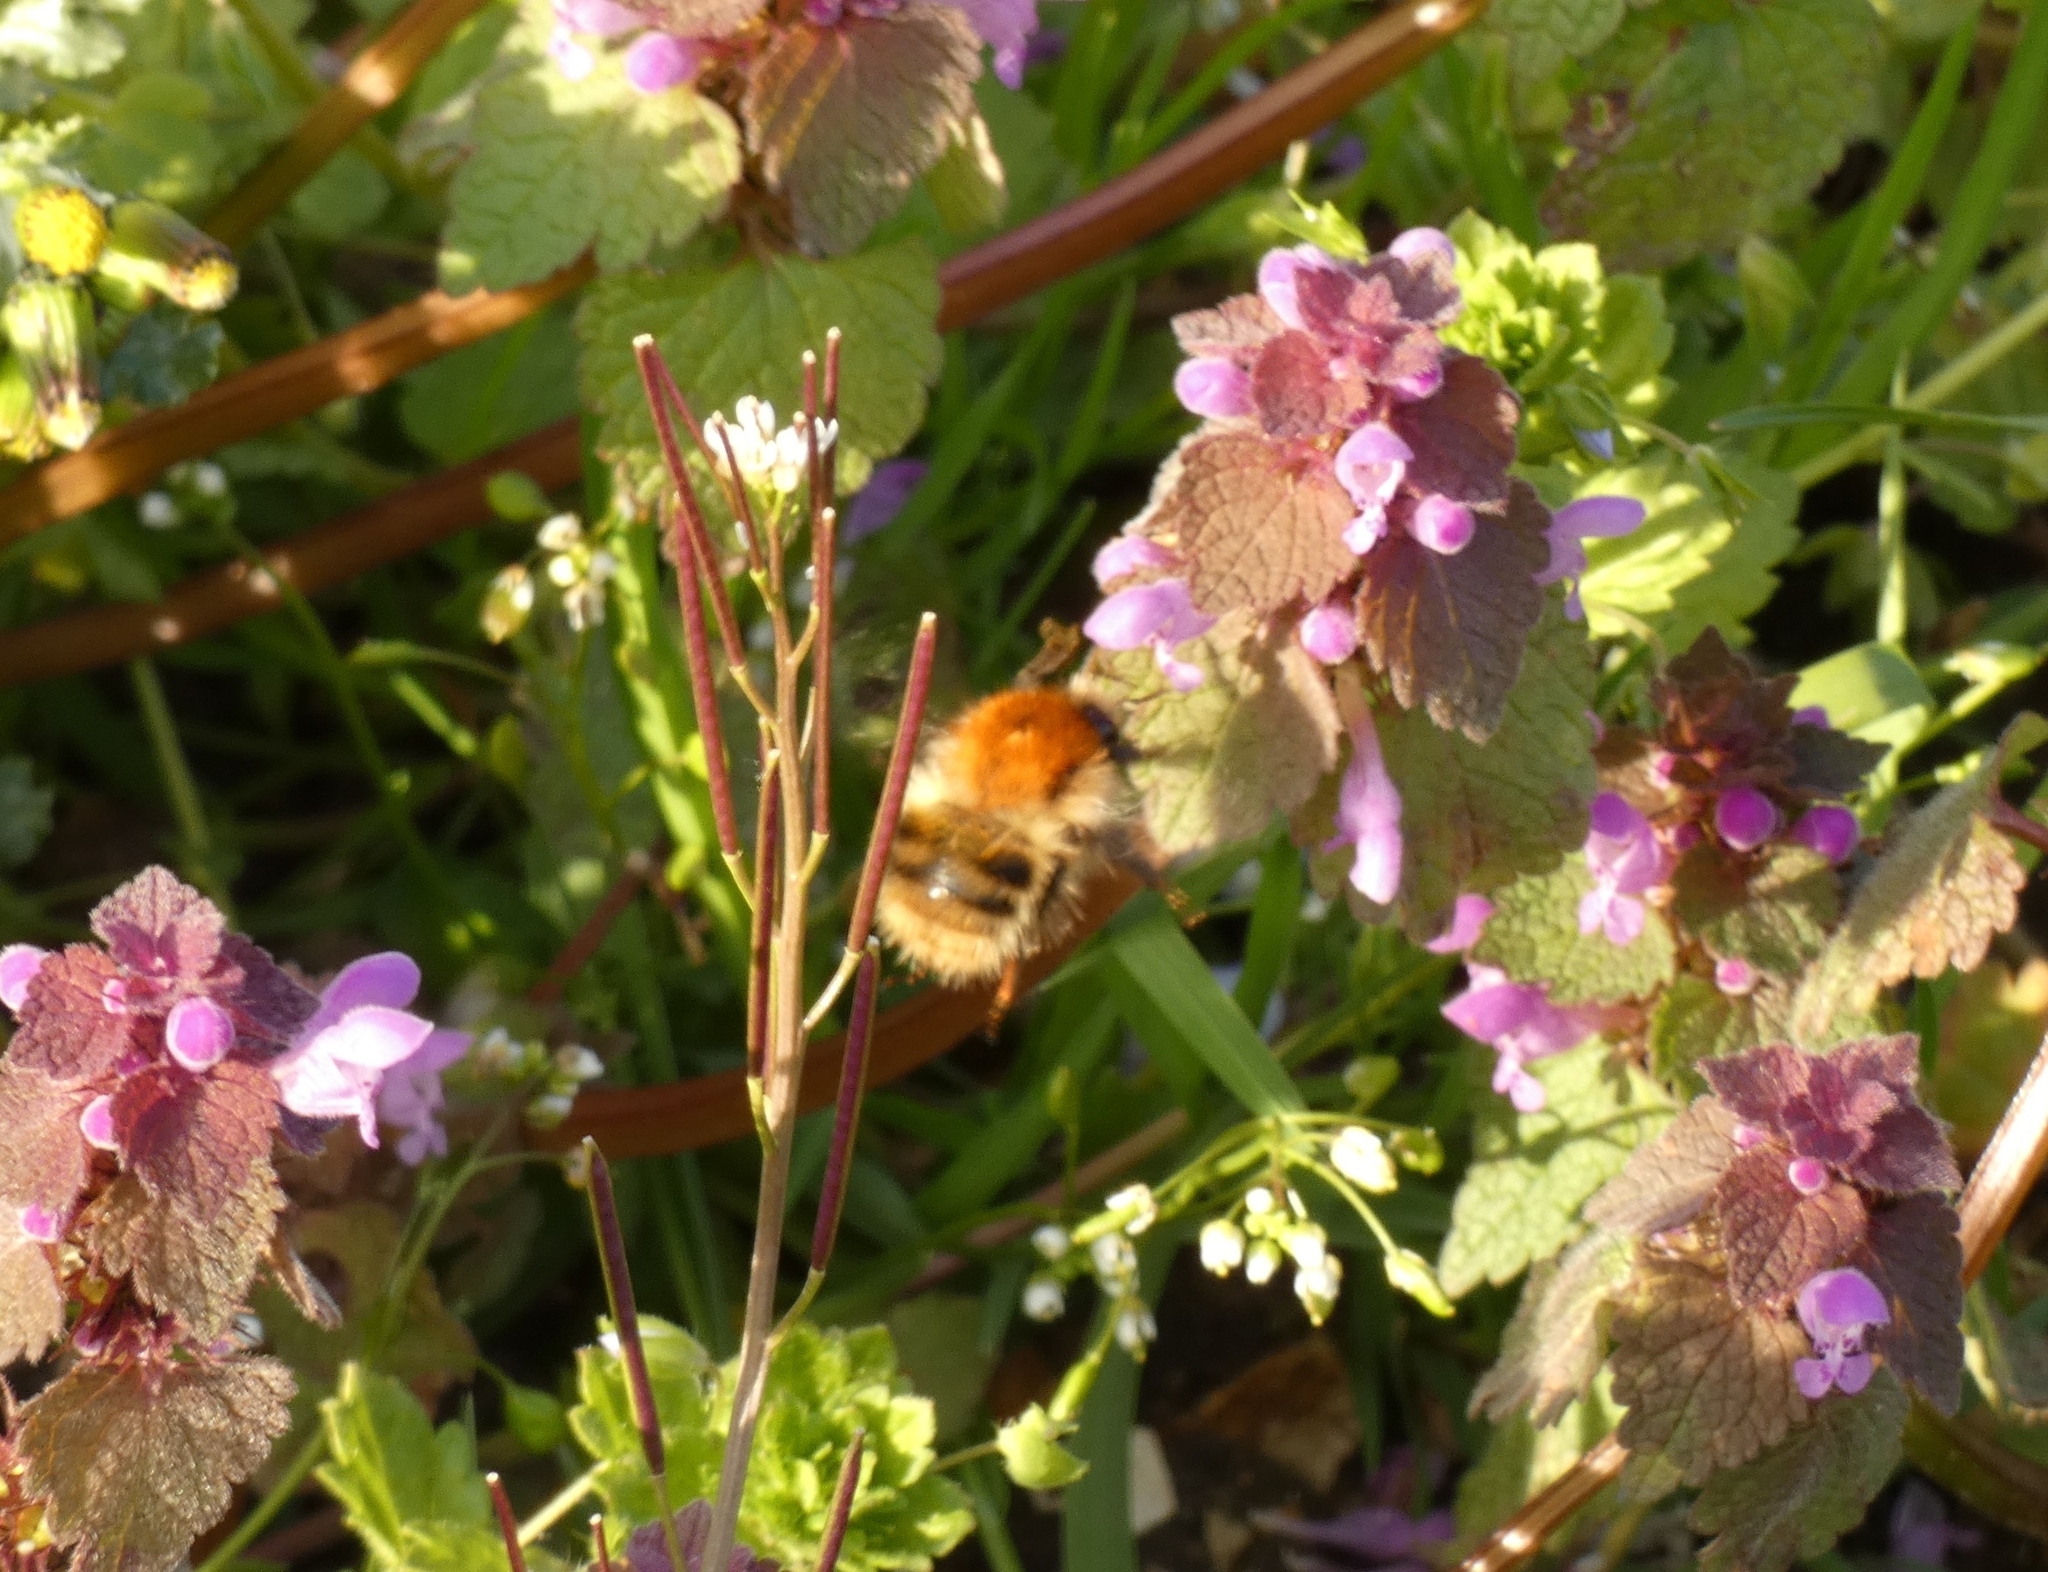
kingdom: Animalia
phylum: Arthropoda
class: Insecta
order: Hymenoptera
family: Apidae
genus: Bombus
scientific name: Bombus pascuorum
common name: Common carder bee
